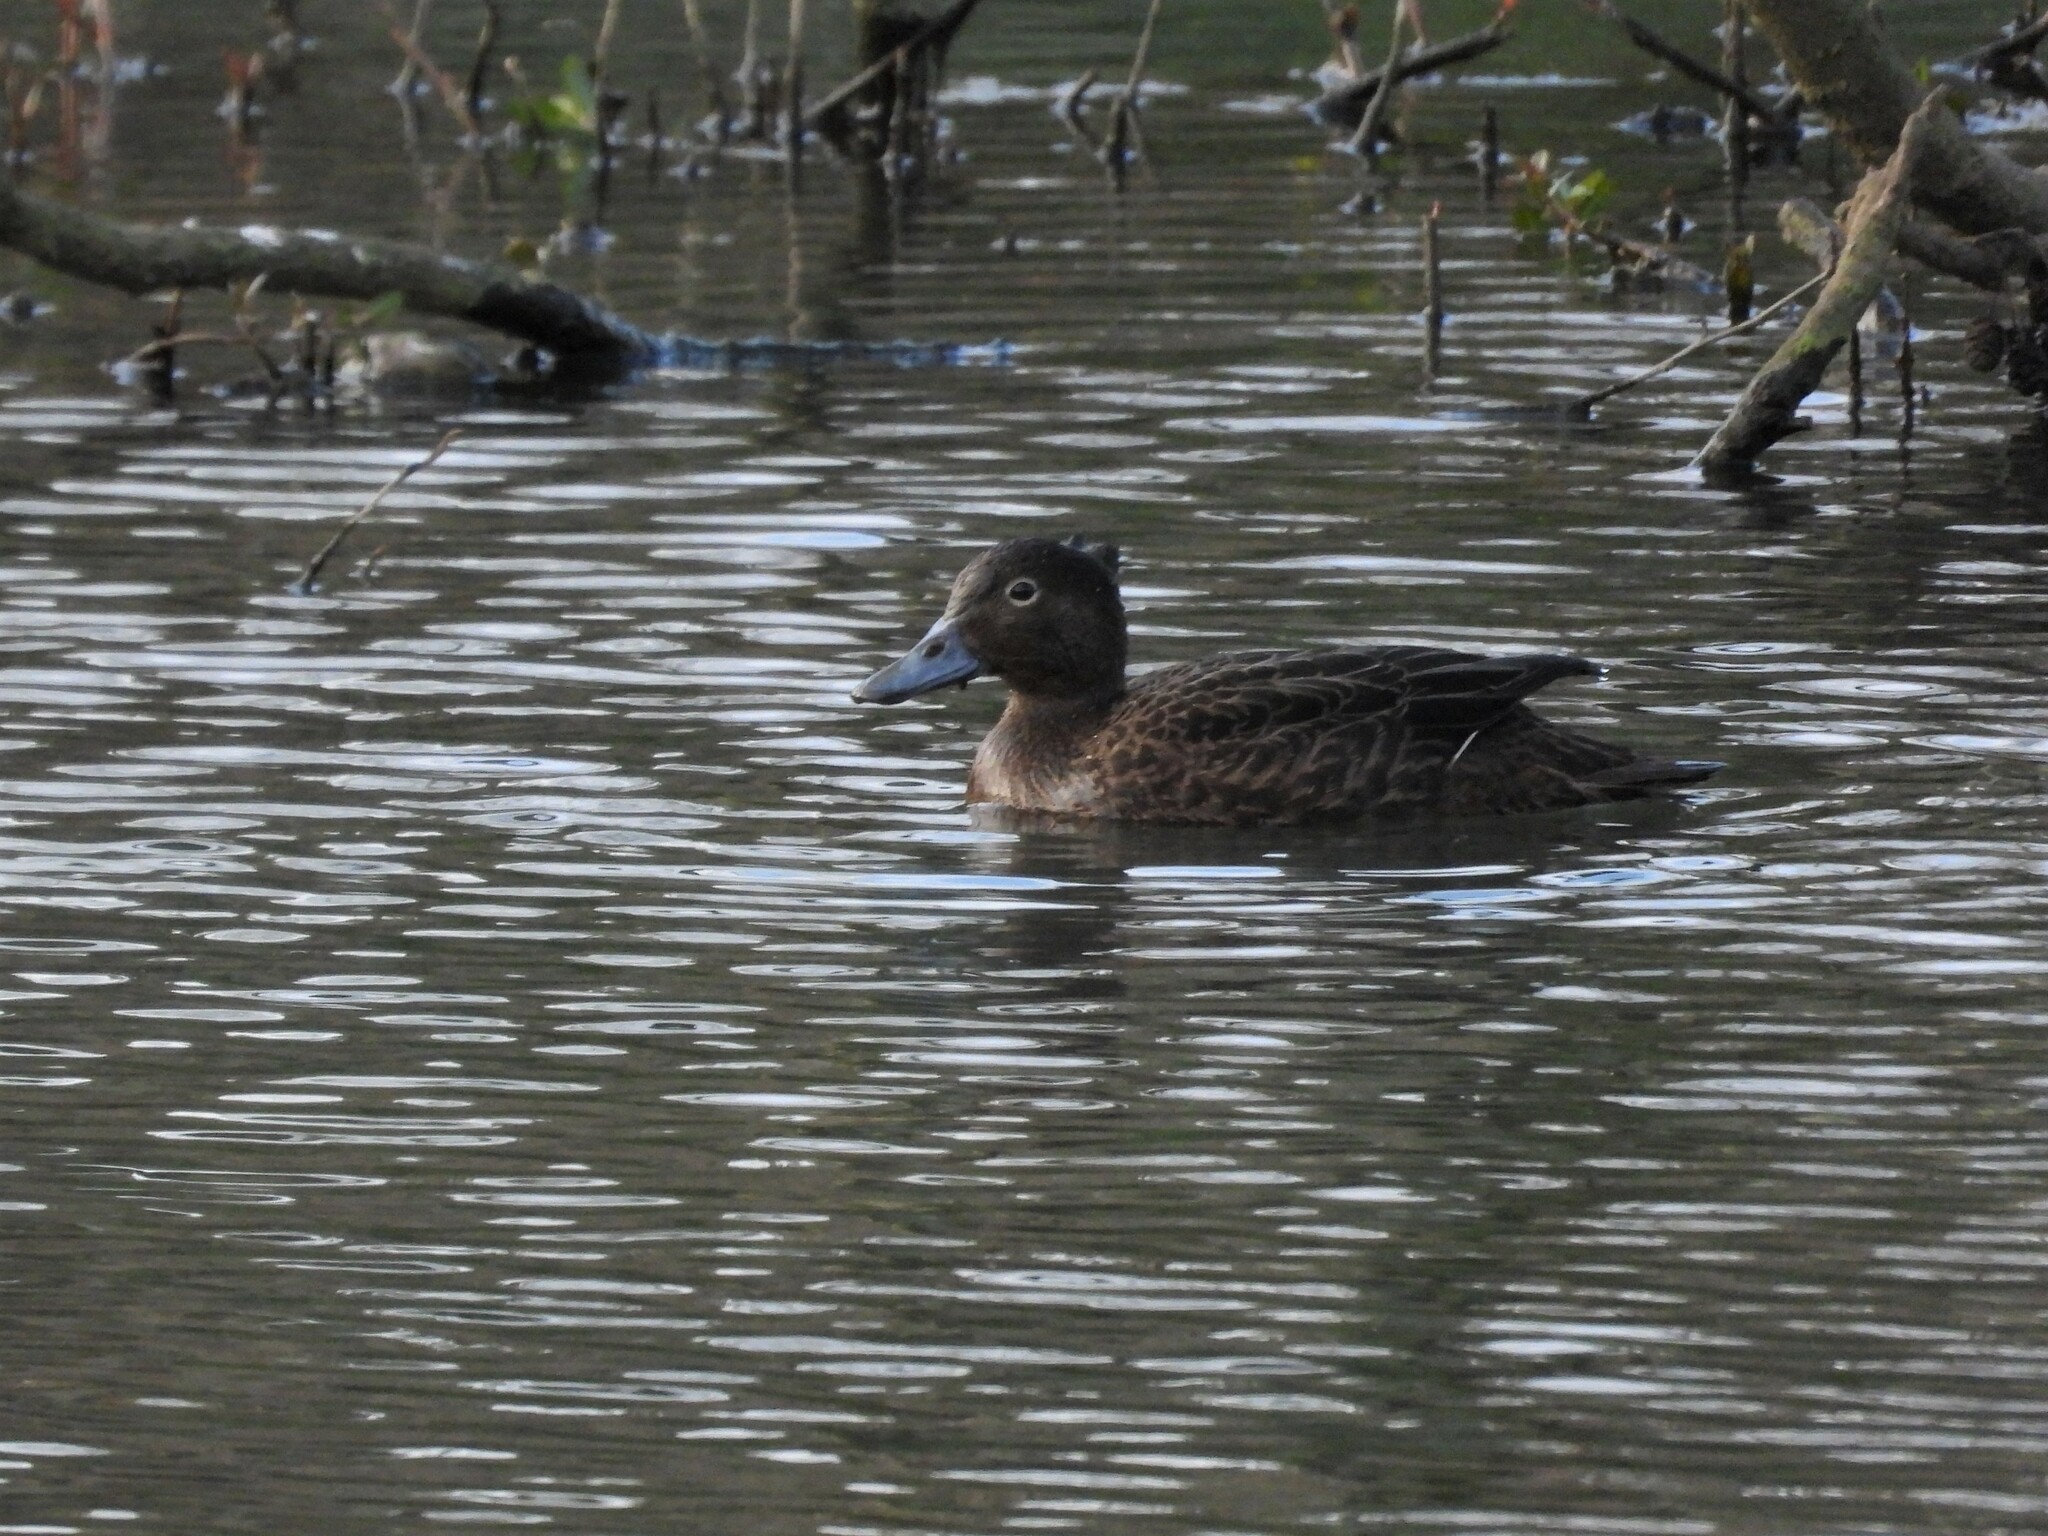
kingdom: Animalia
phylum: Chordata
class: Aves
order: Anseriformes
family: Anatidae
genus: Anas
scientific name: Anas chlorotis
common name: Brown teal
